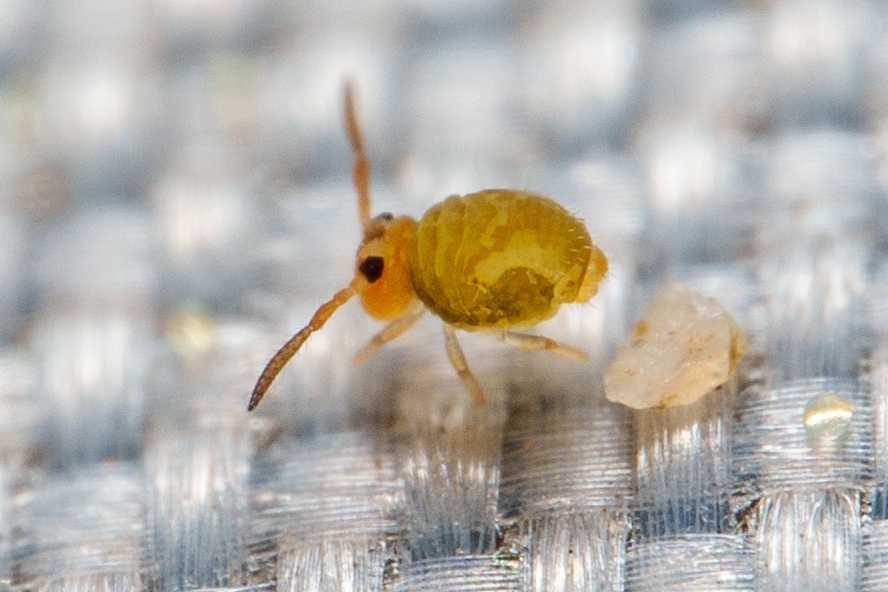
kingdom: Animalia
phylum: Arthropoda
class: Collembola
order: Symphypleona
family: Katiannidae
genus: Sminthurinus
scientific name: Sminthurinus henshawi
